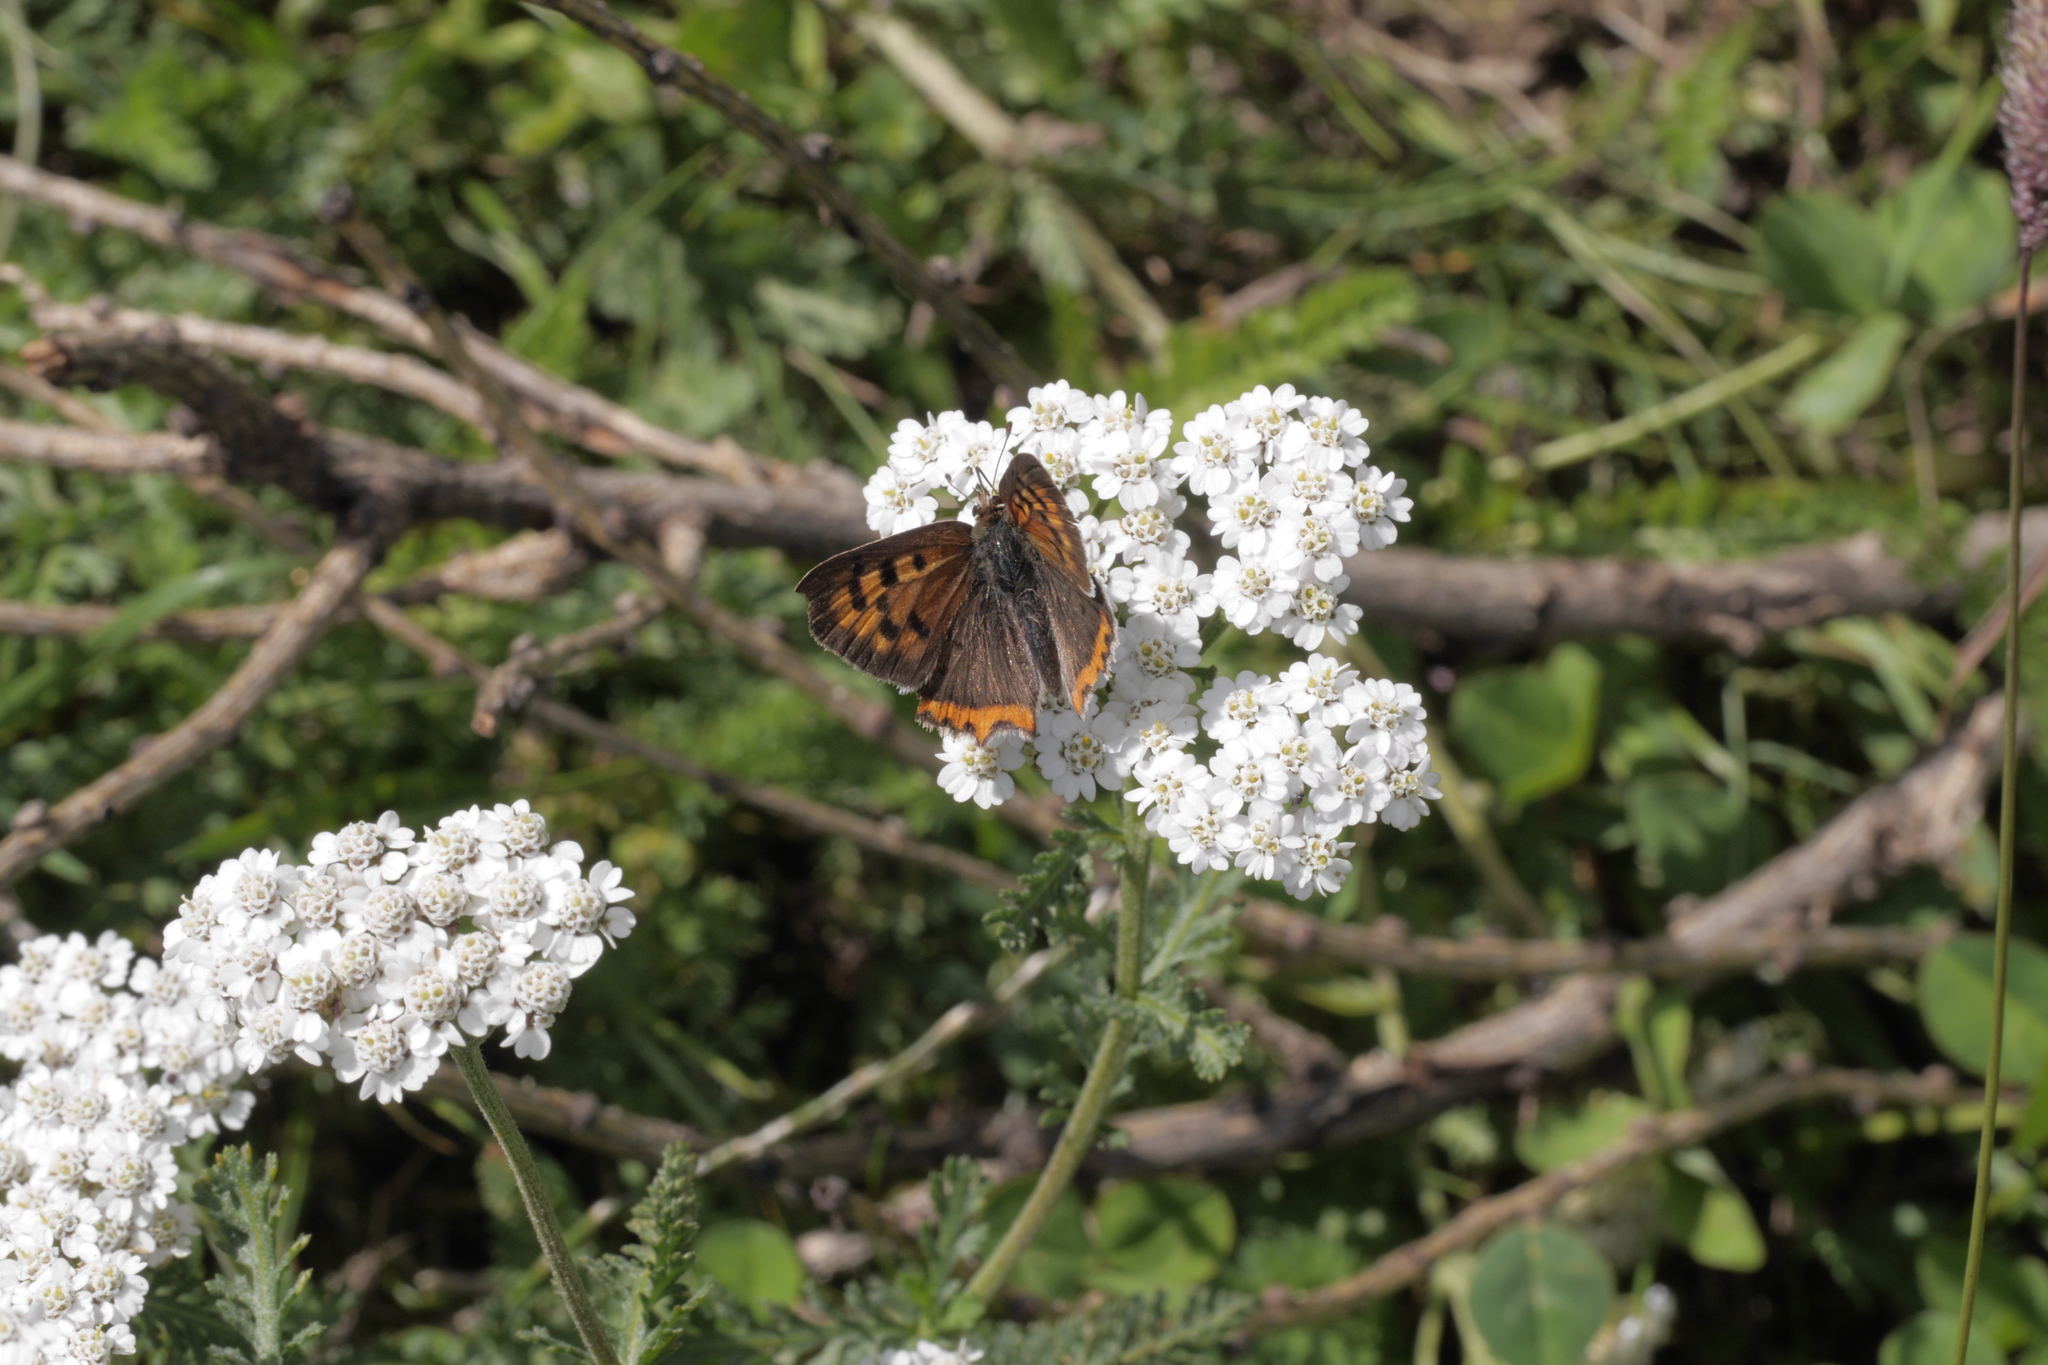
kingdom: Animalia
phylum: Arthropoda
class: Insecta
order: Lepidoptera
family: Lycaenidae
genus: Lycaena
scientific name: Lycaena phlaeas
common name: Small copper
